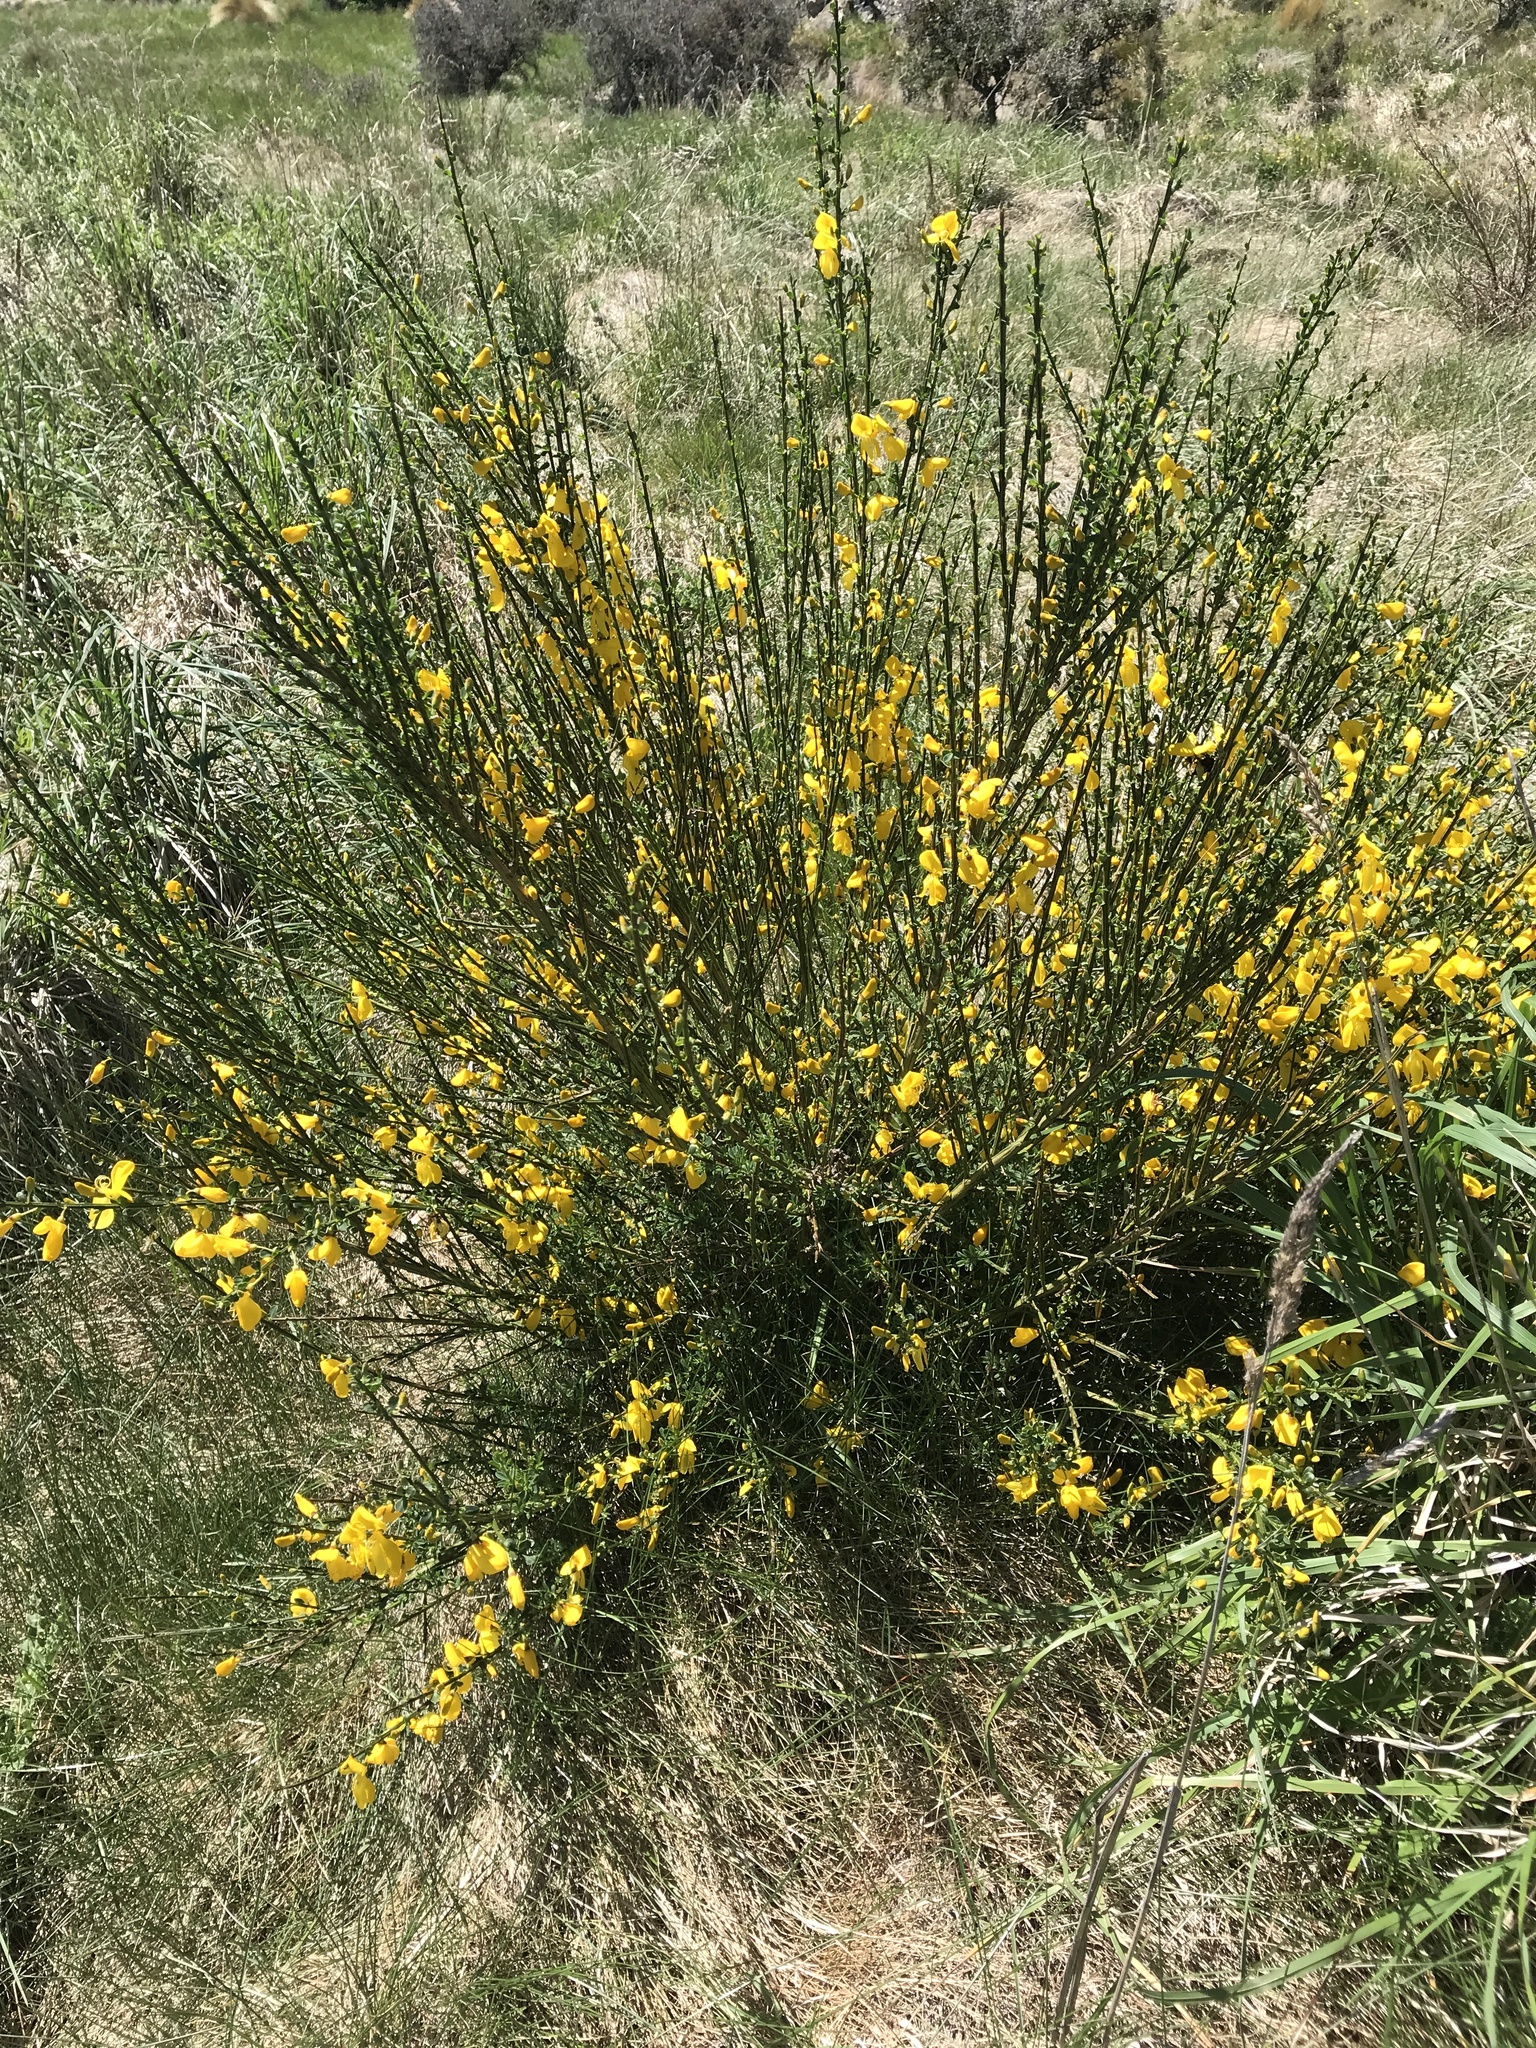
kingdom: Plantae
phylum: Tracheophyta
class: Magnoliopsida
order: Fabales
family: Fabaceae
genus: Cytisus
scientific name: Cytisus scoparius
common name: Scotch broom
